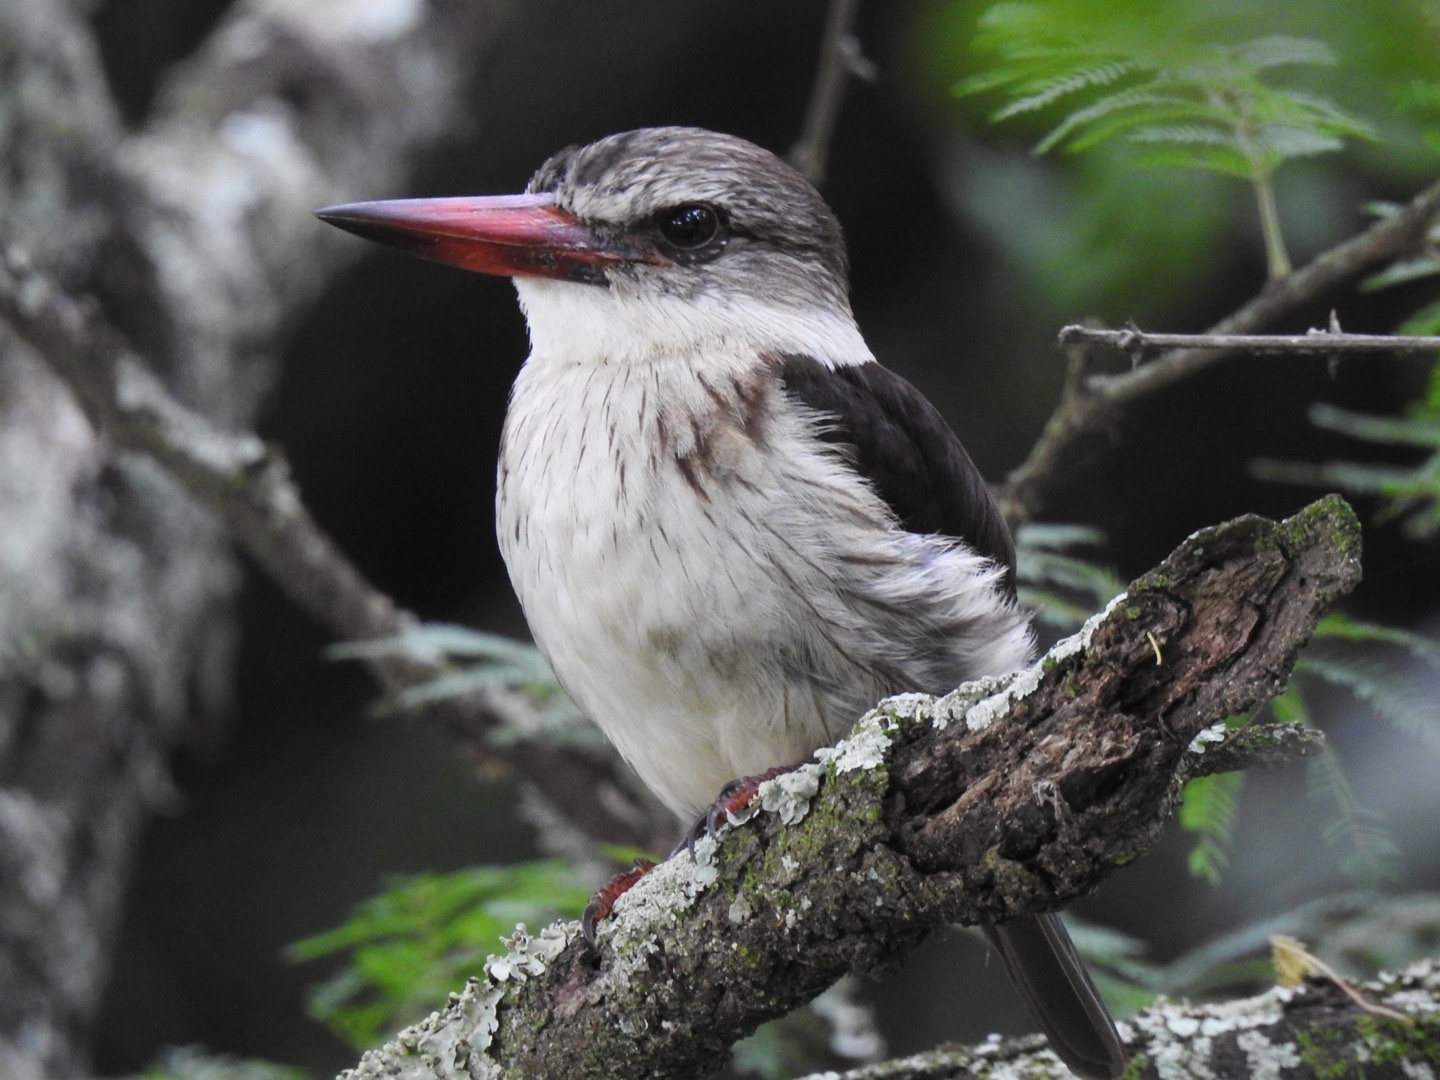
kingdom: Animalia
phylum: Chordata
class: Aves
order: Coraciiformes
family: Alcedinidae
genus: Halcyon
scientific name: Halcyon albiventris
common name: Brown-hooded kingfisher
